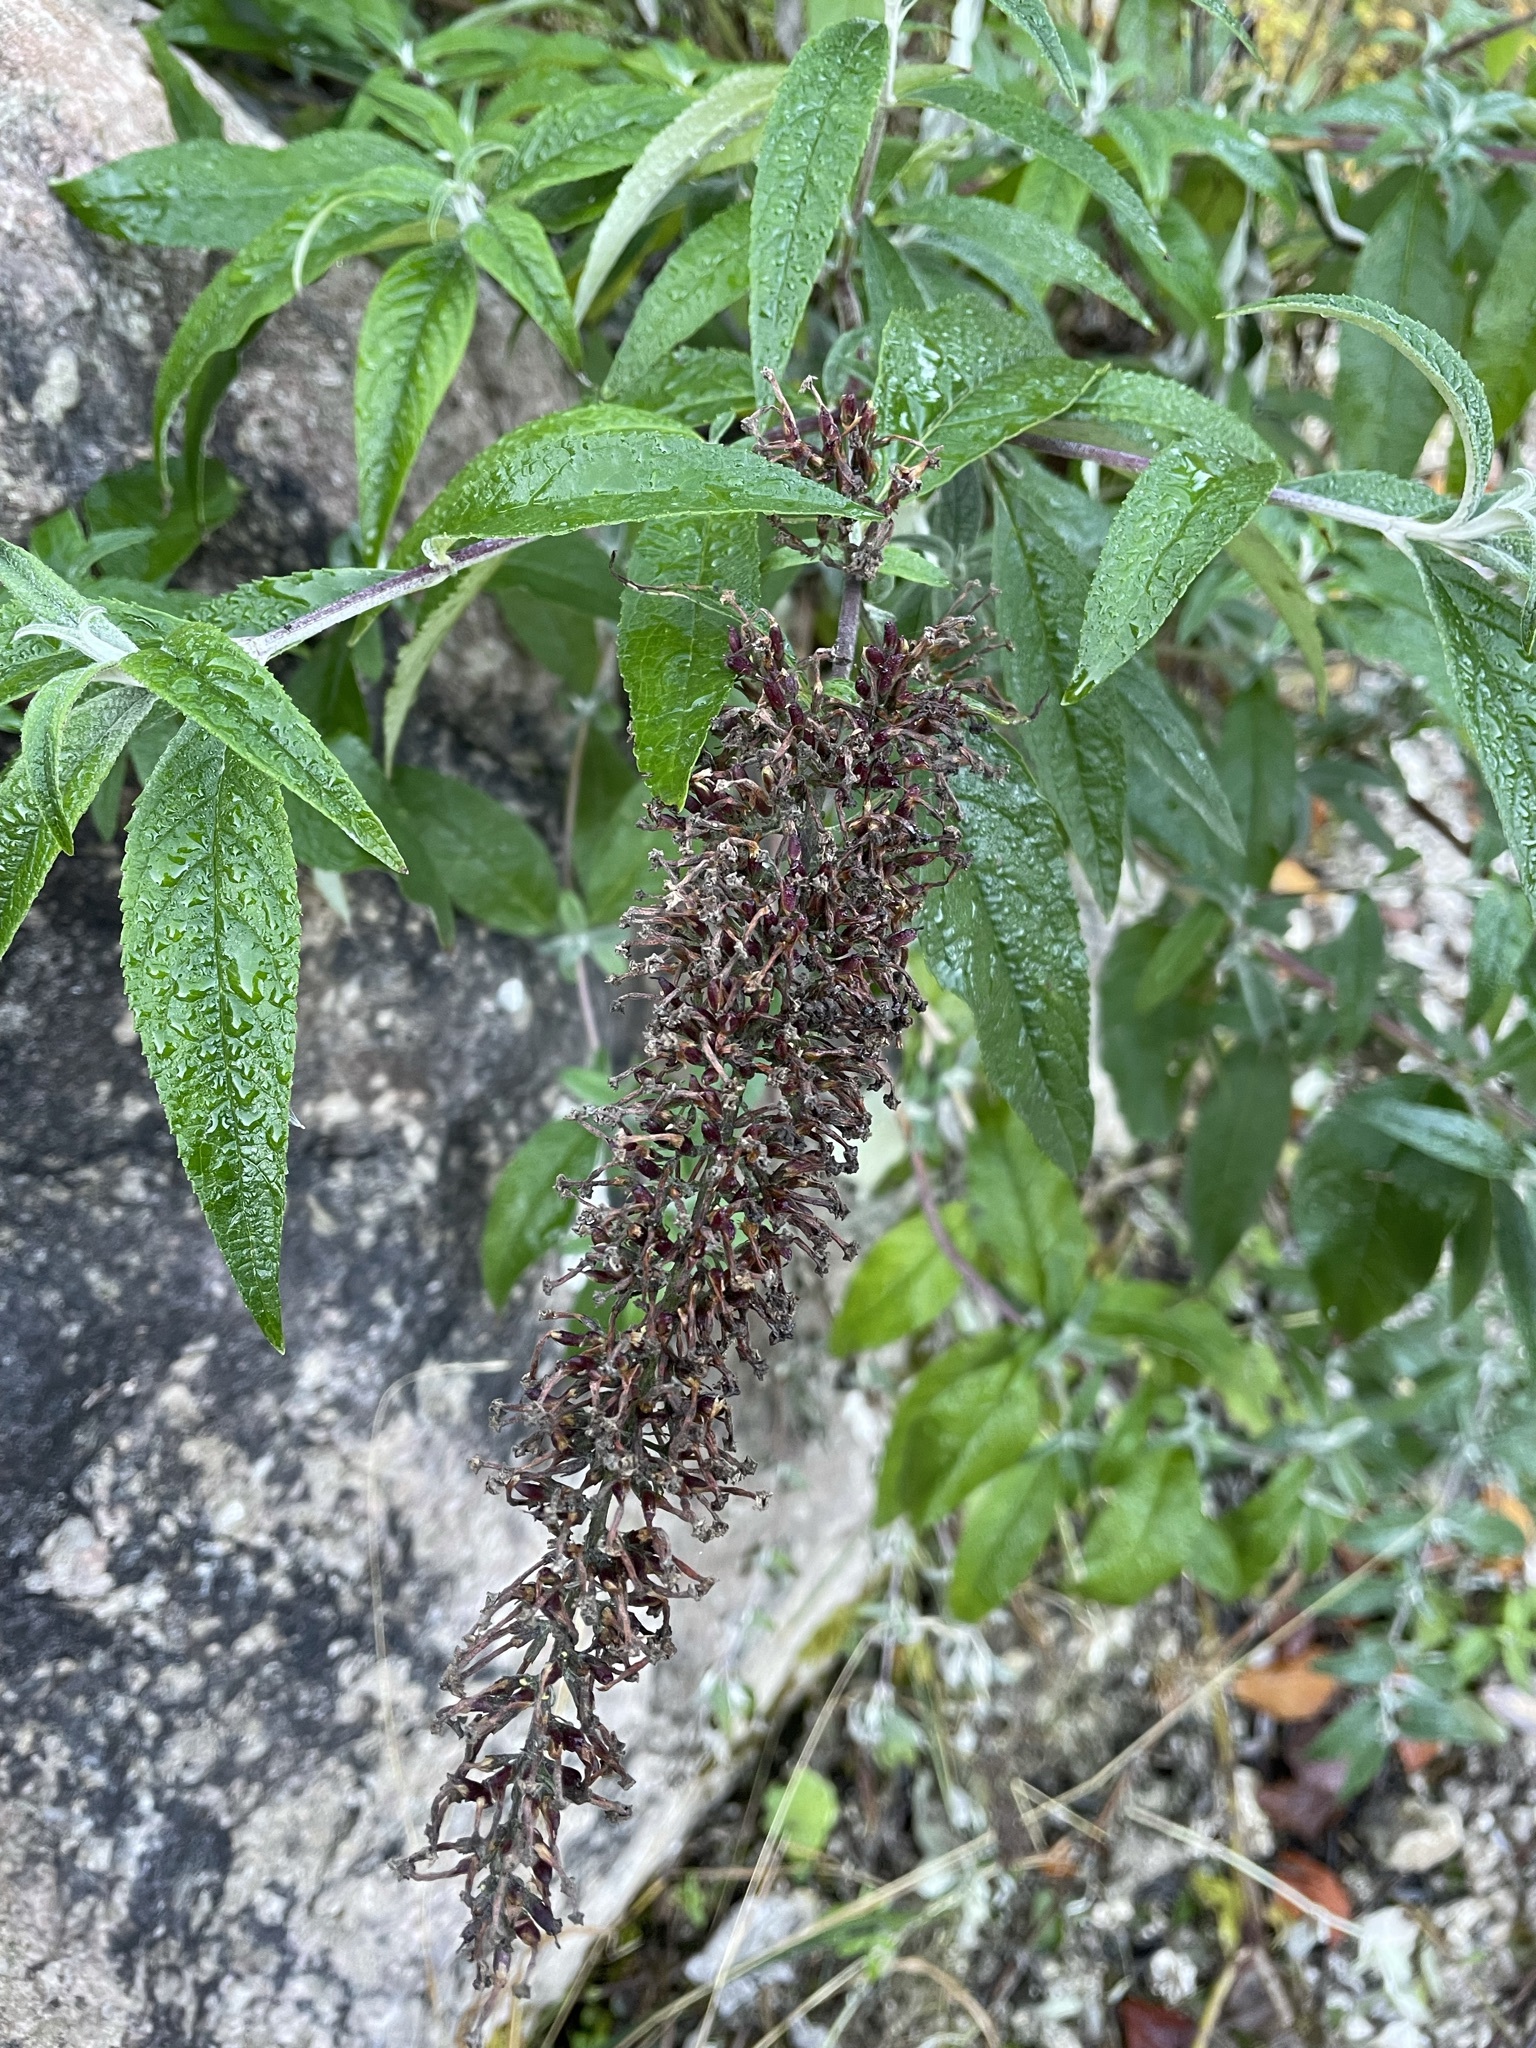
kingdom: Plantae
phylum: Tracheophyta
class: Magnoliopsida
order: Lamiales
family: Scrophulariaceae
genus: Buddleja
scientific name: Buddleja davidii
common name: Butterfly-bush
